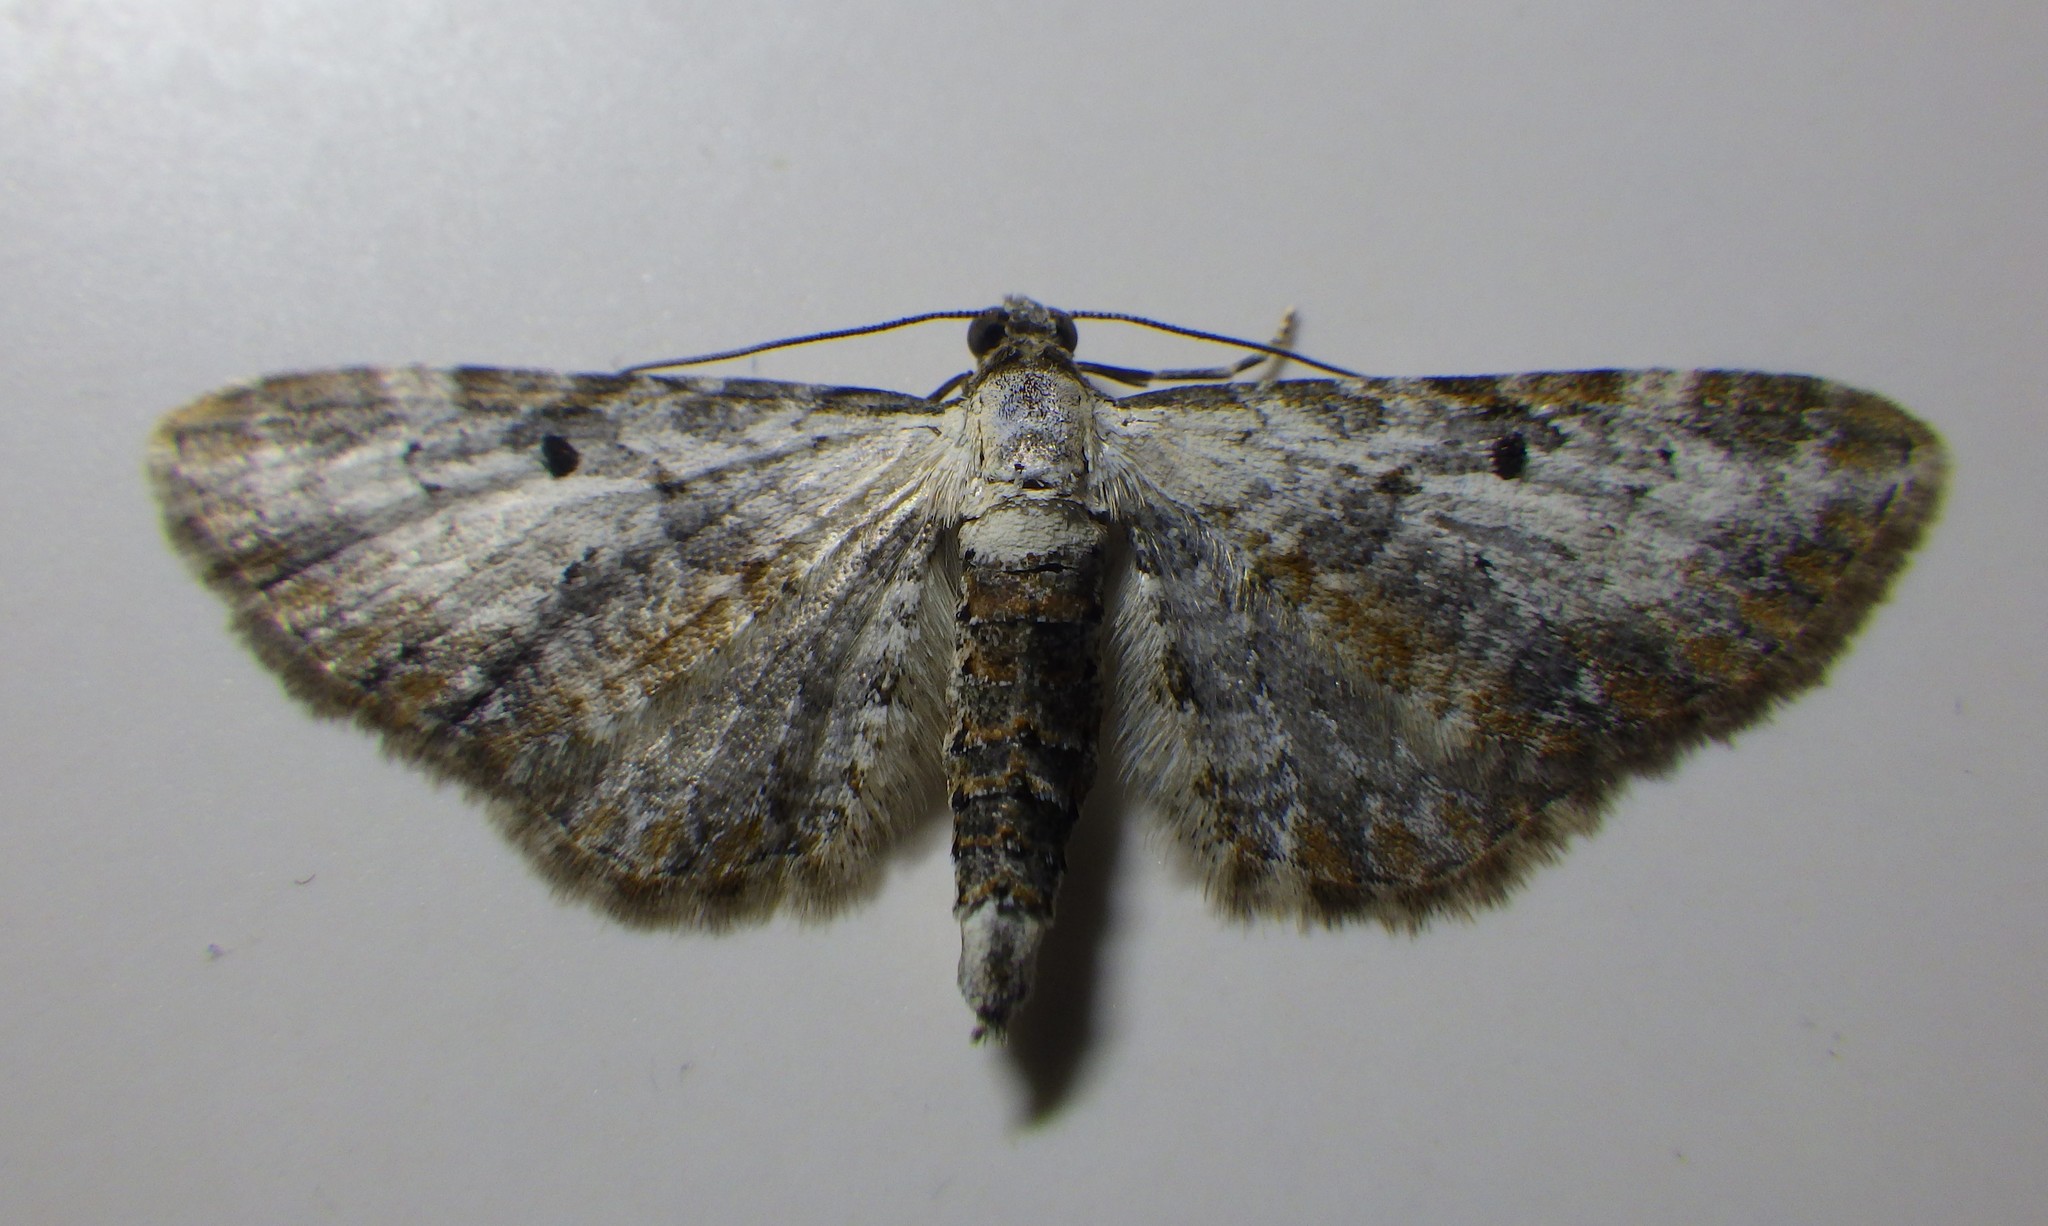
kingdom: Animalia
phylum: Arthropoda
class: Insecta
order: Lepidoptera
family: Geometridae
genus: Eupithecia
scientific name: Eupithecia succenturiata
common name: Bordered pug
